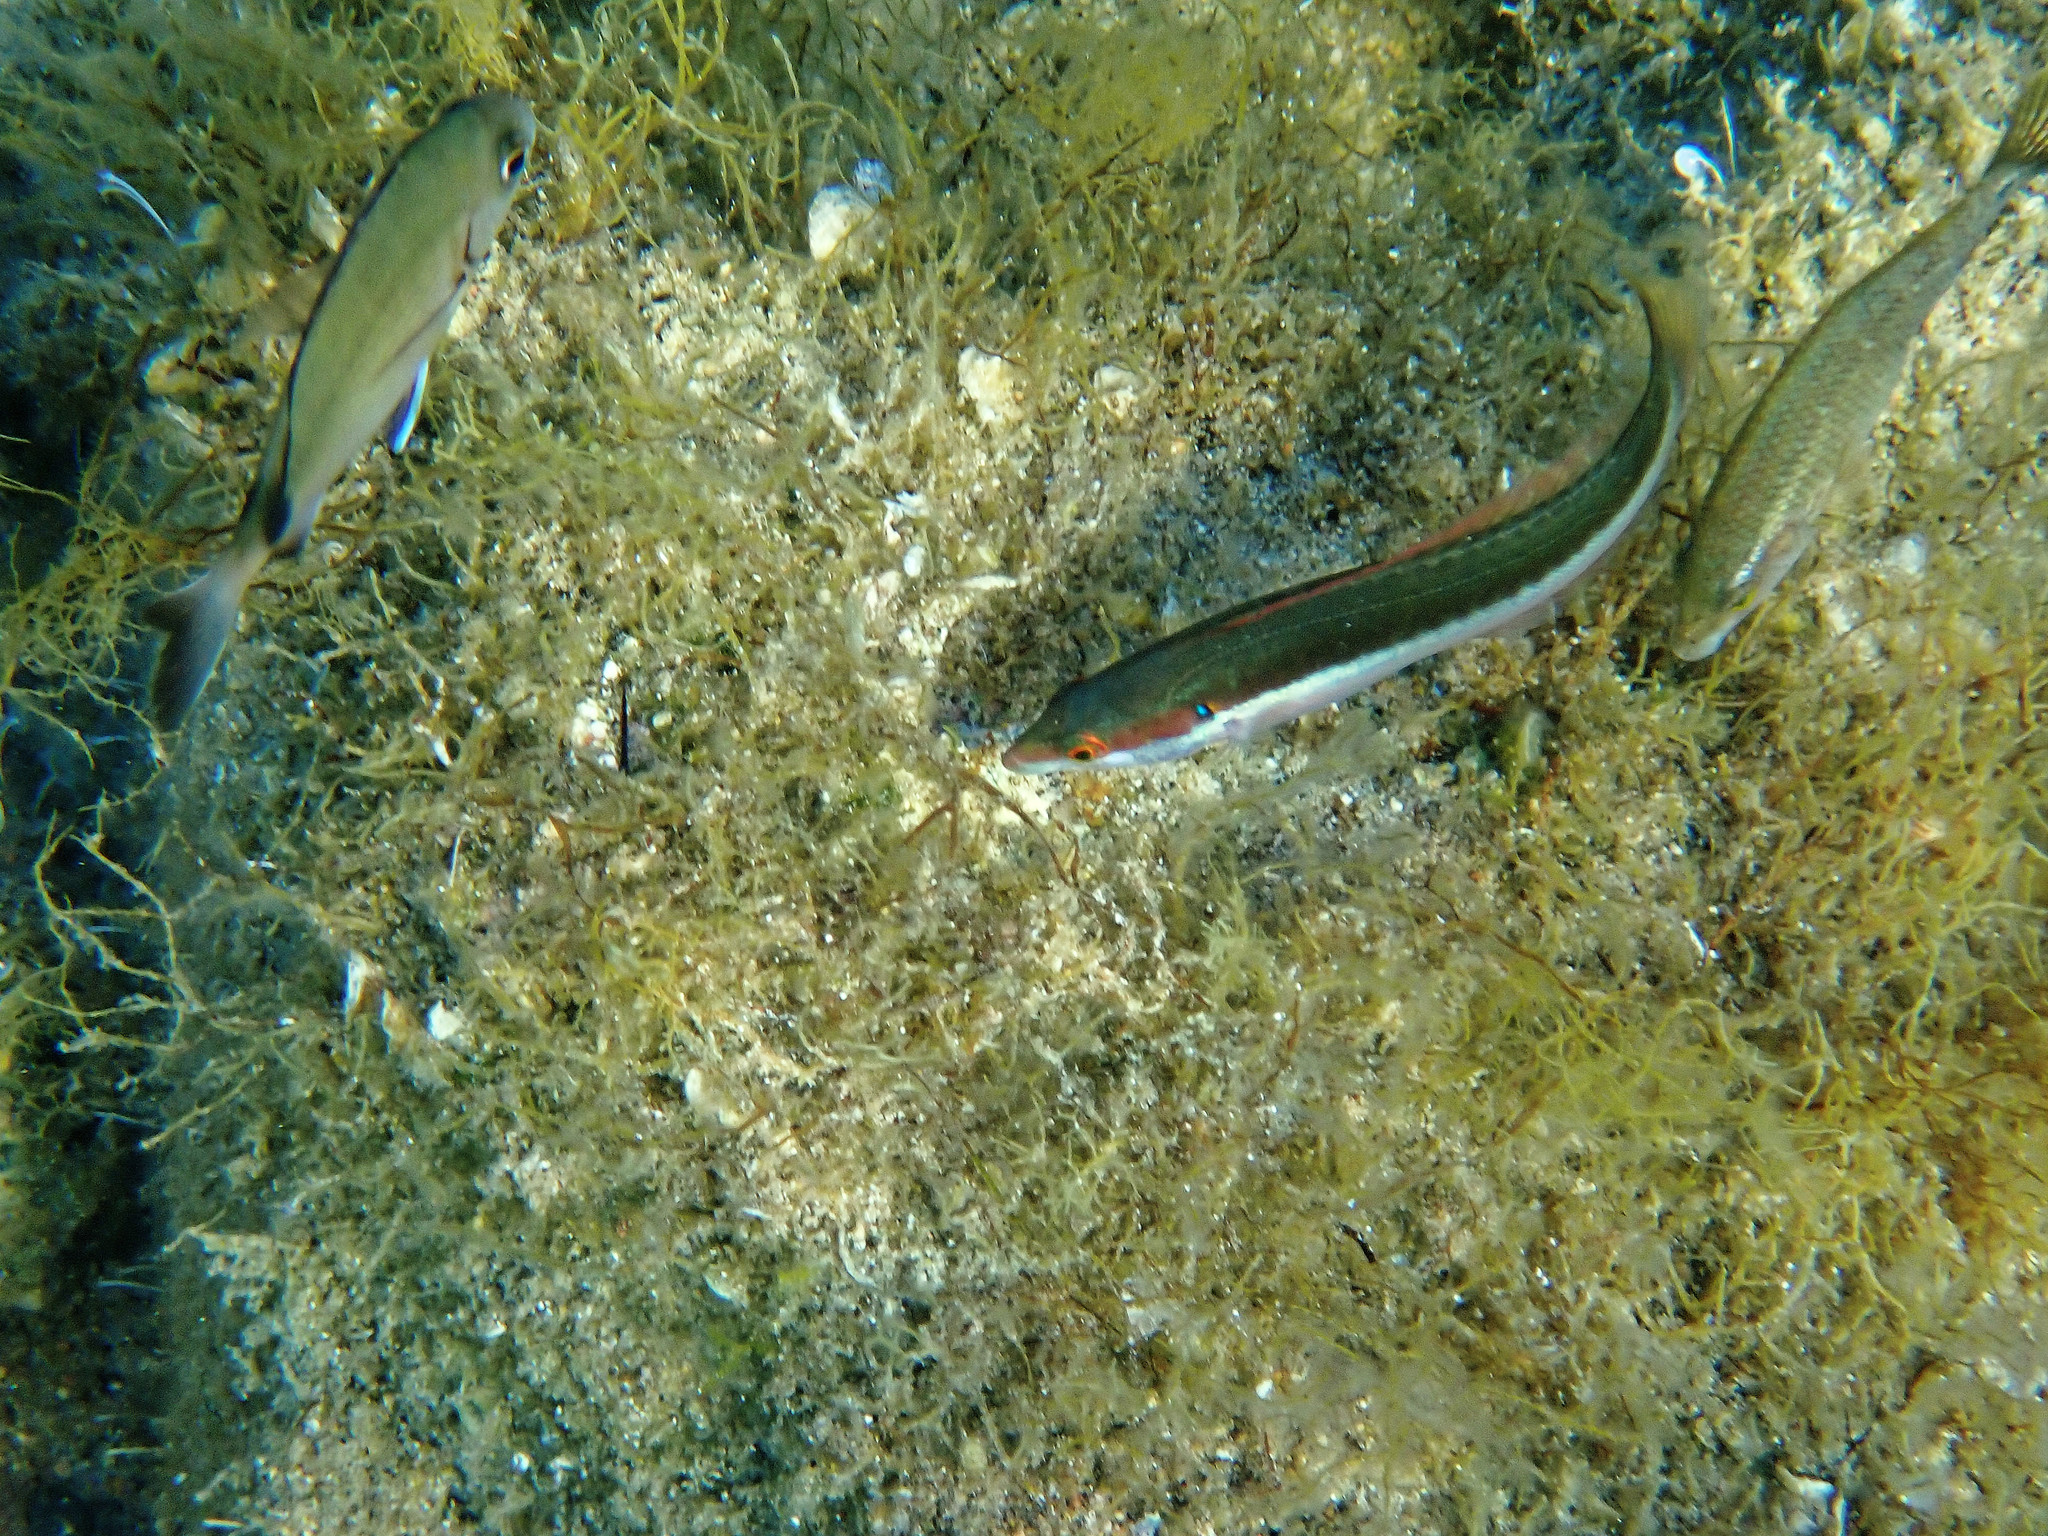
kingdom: Animalia
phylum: Chordata
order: Perciformes
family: Labridae
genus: Coris
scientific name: Coris julis
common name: Rainbow wrasse
